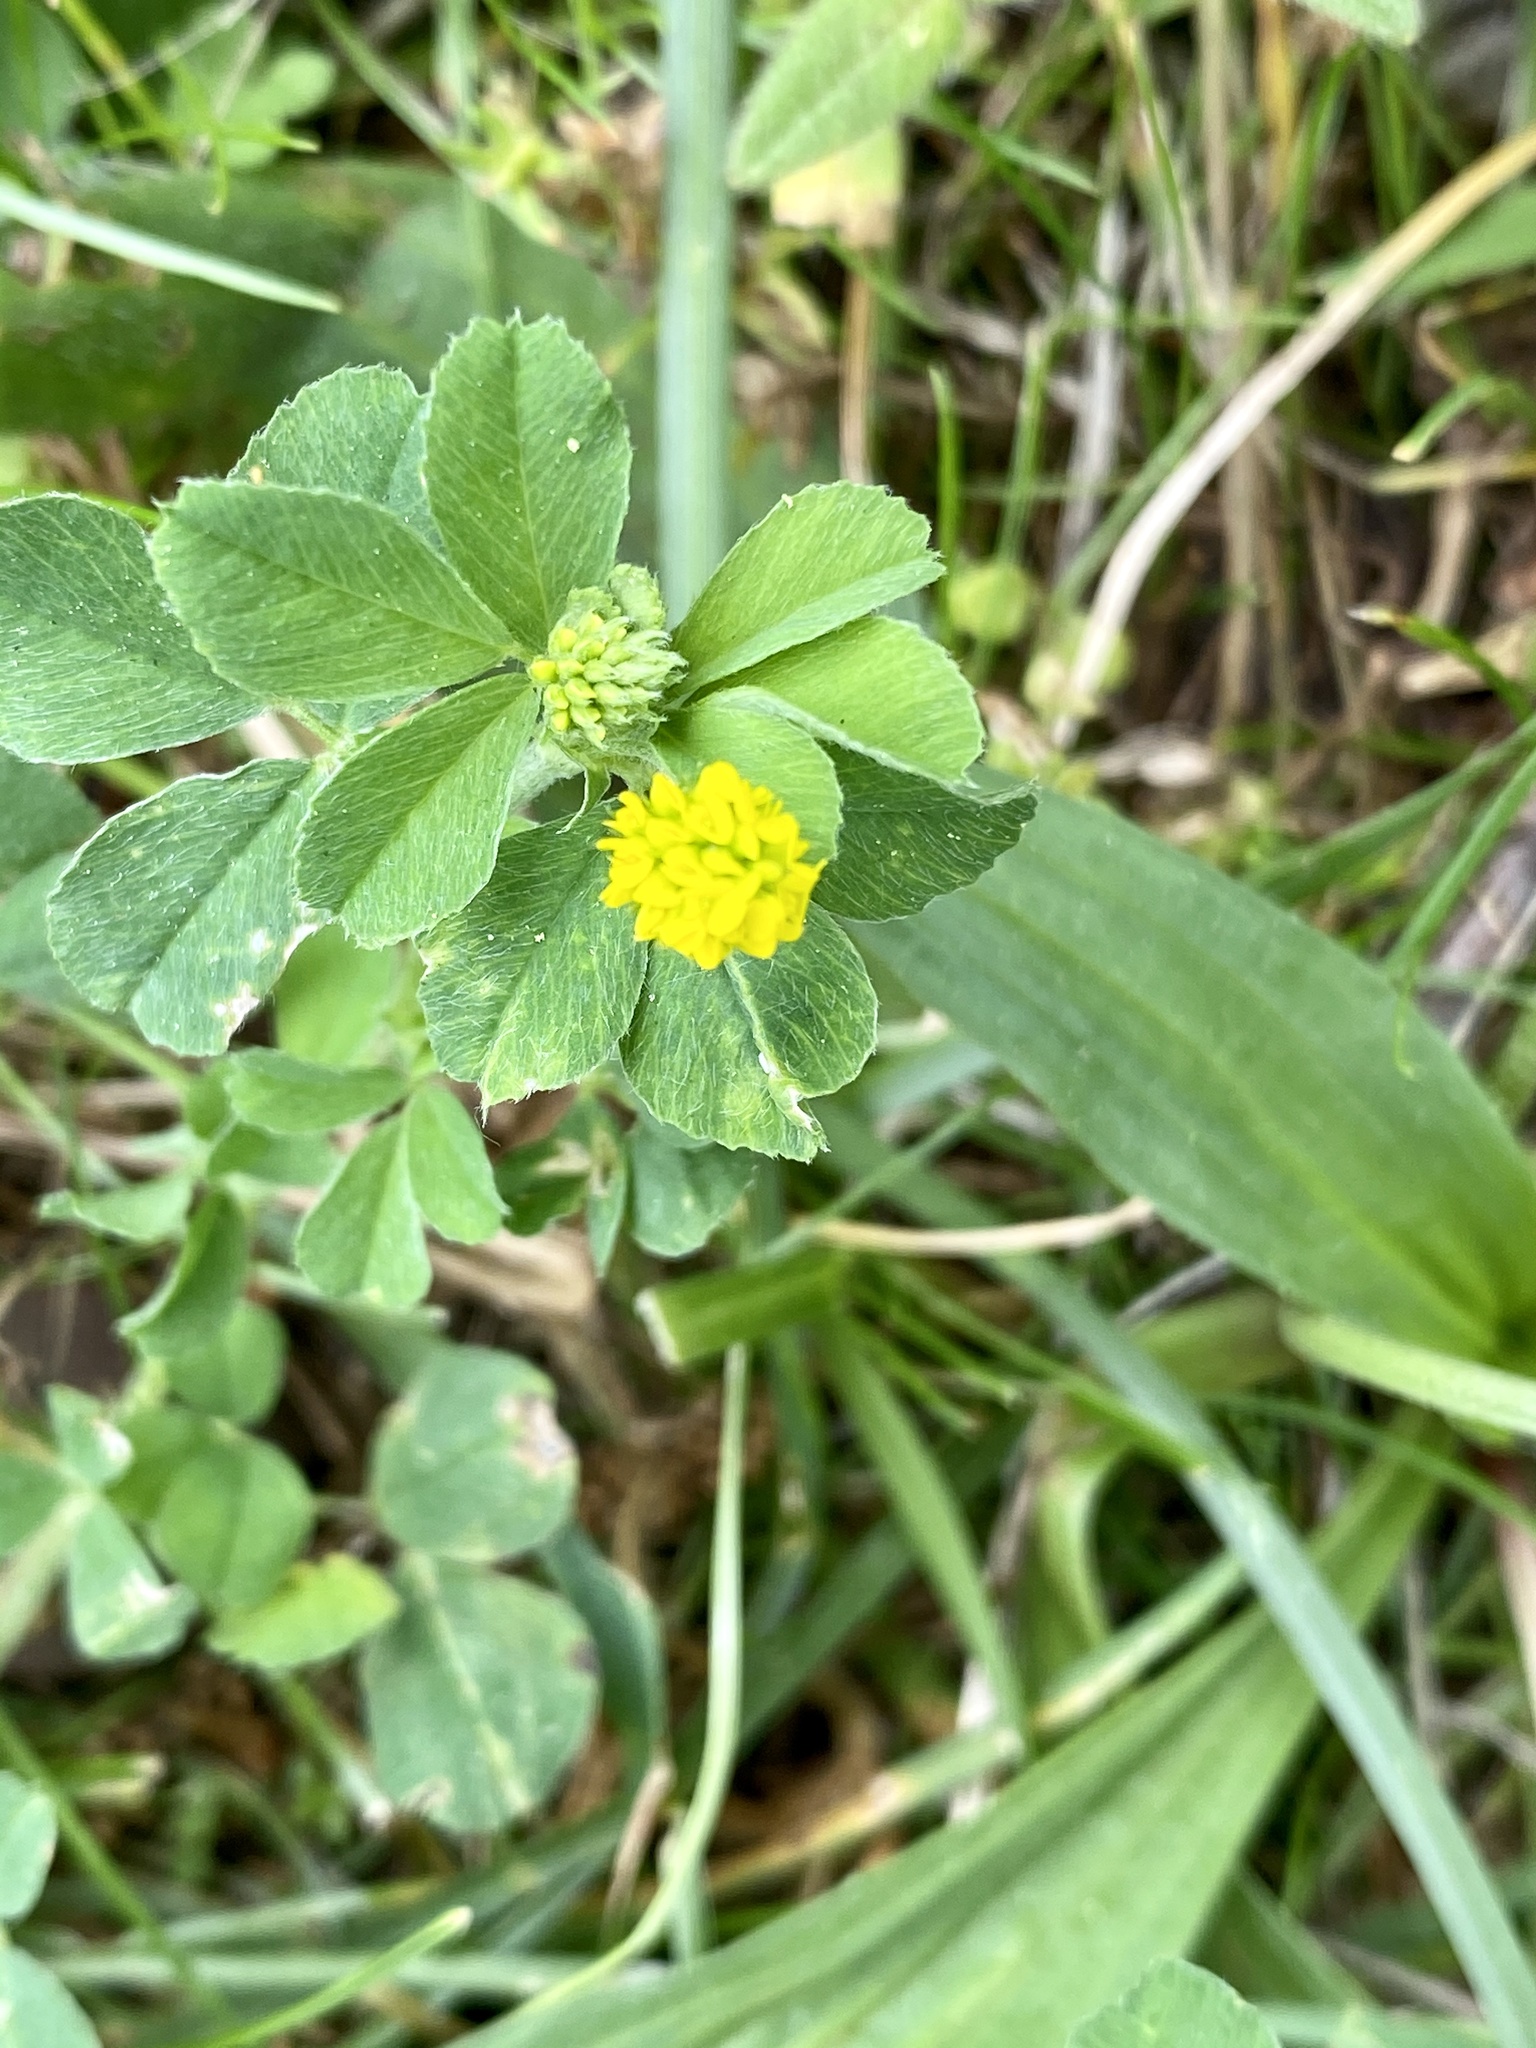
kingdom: Plantae
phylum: Tracheophyta
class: Magnoliopsida
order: Fabales
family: Fabaceae
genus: Medicago
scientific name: Medicago lupulina
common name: Black medick
